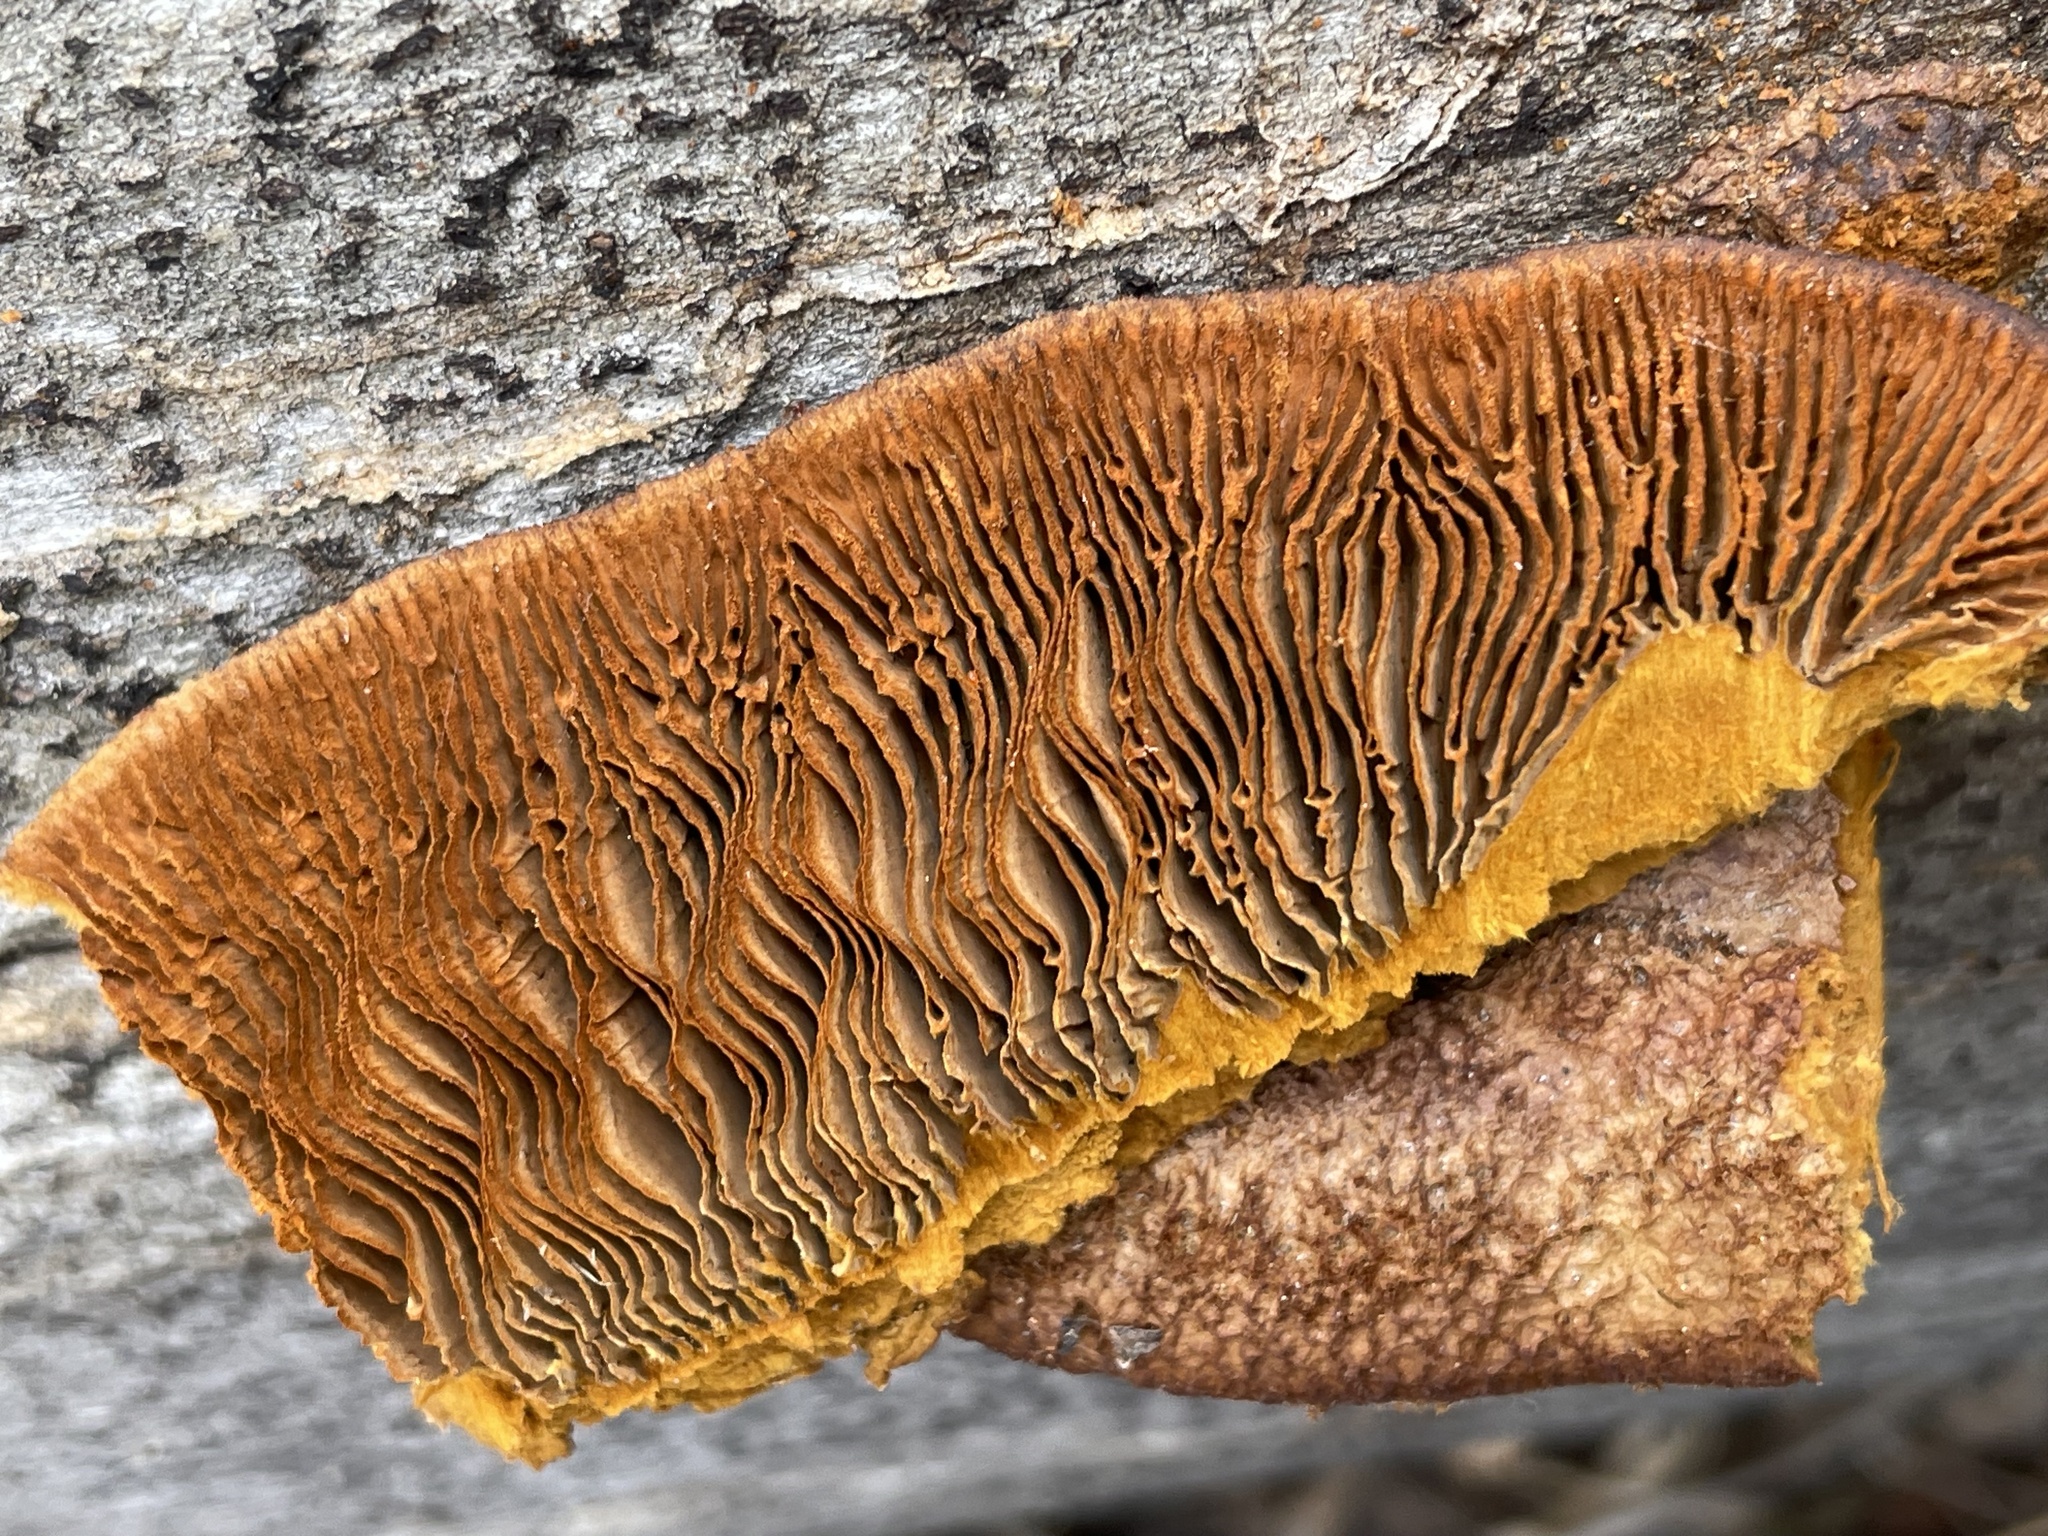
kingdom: Fungi
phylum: Basidiomycota
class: Agaricomycetes
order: Gloeophyllales
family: Gloeophyllaceae
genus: Gloeophyllum
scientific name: Gloeophyllum sepiarium
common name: Conifer mazegill
